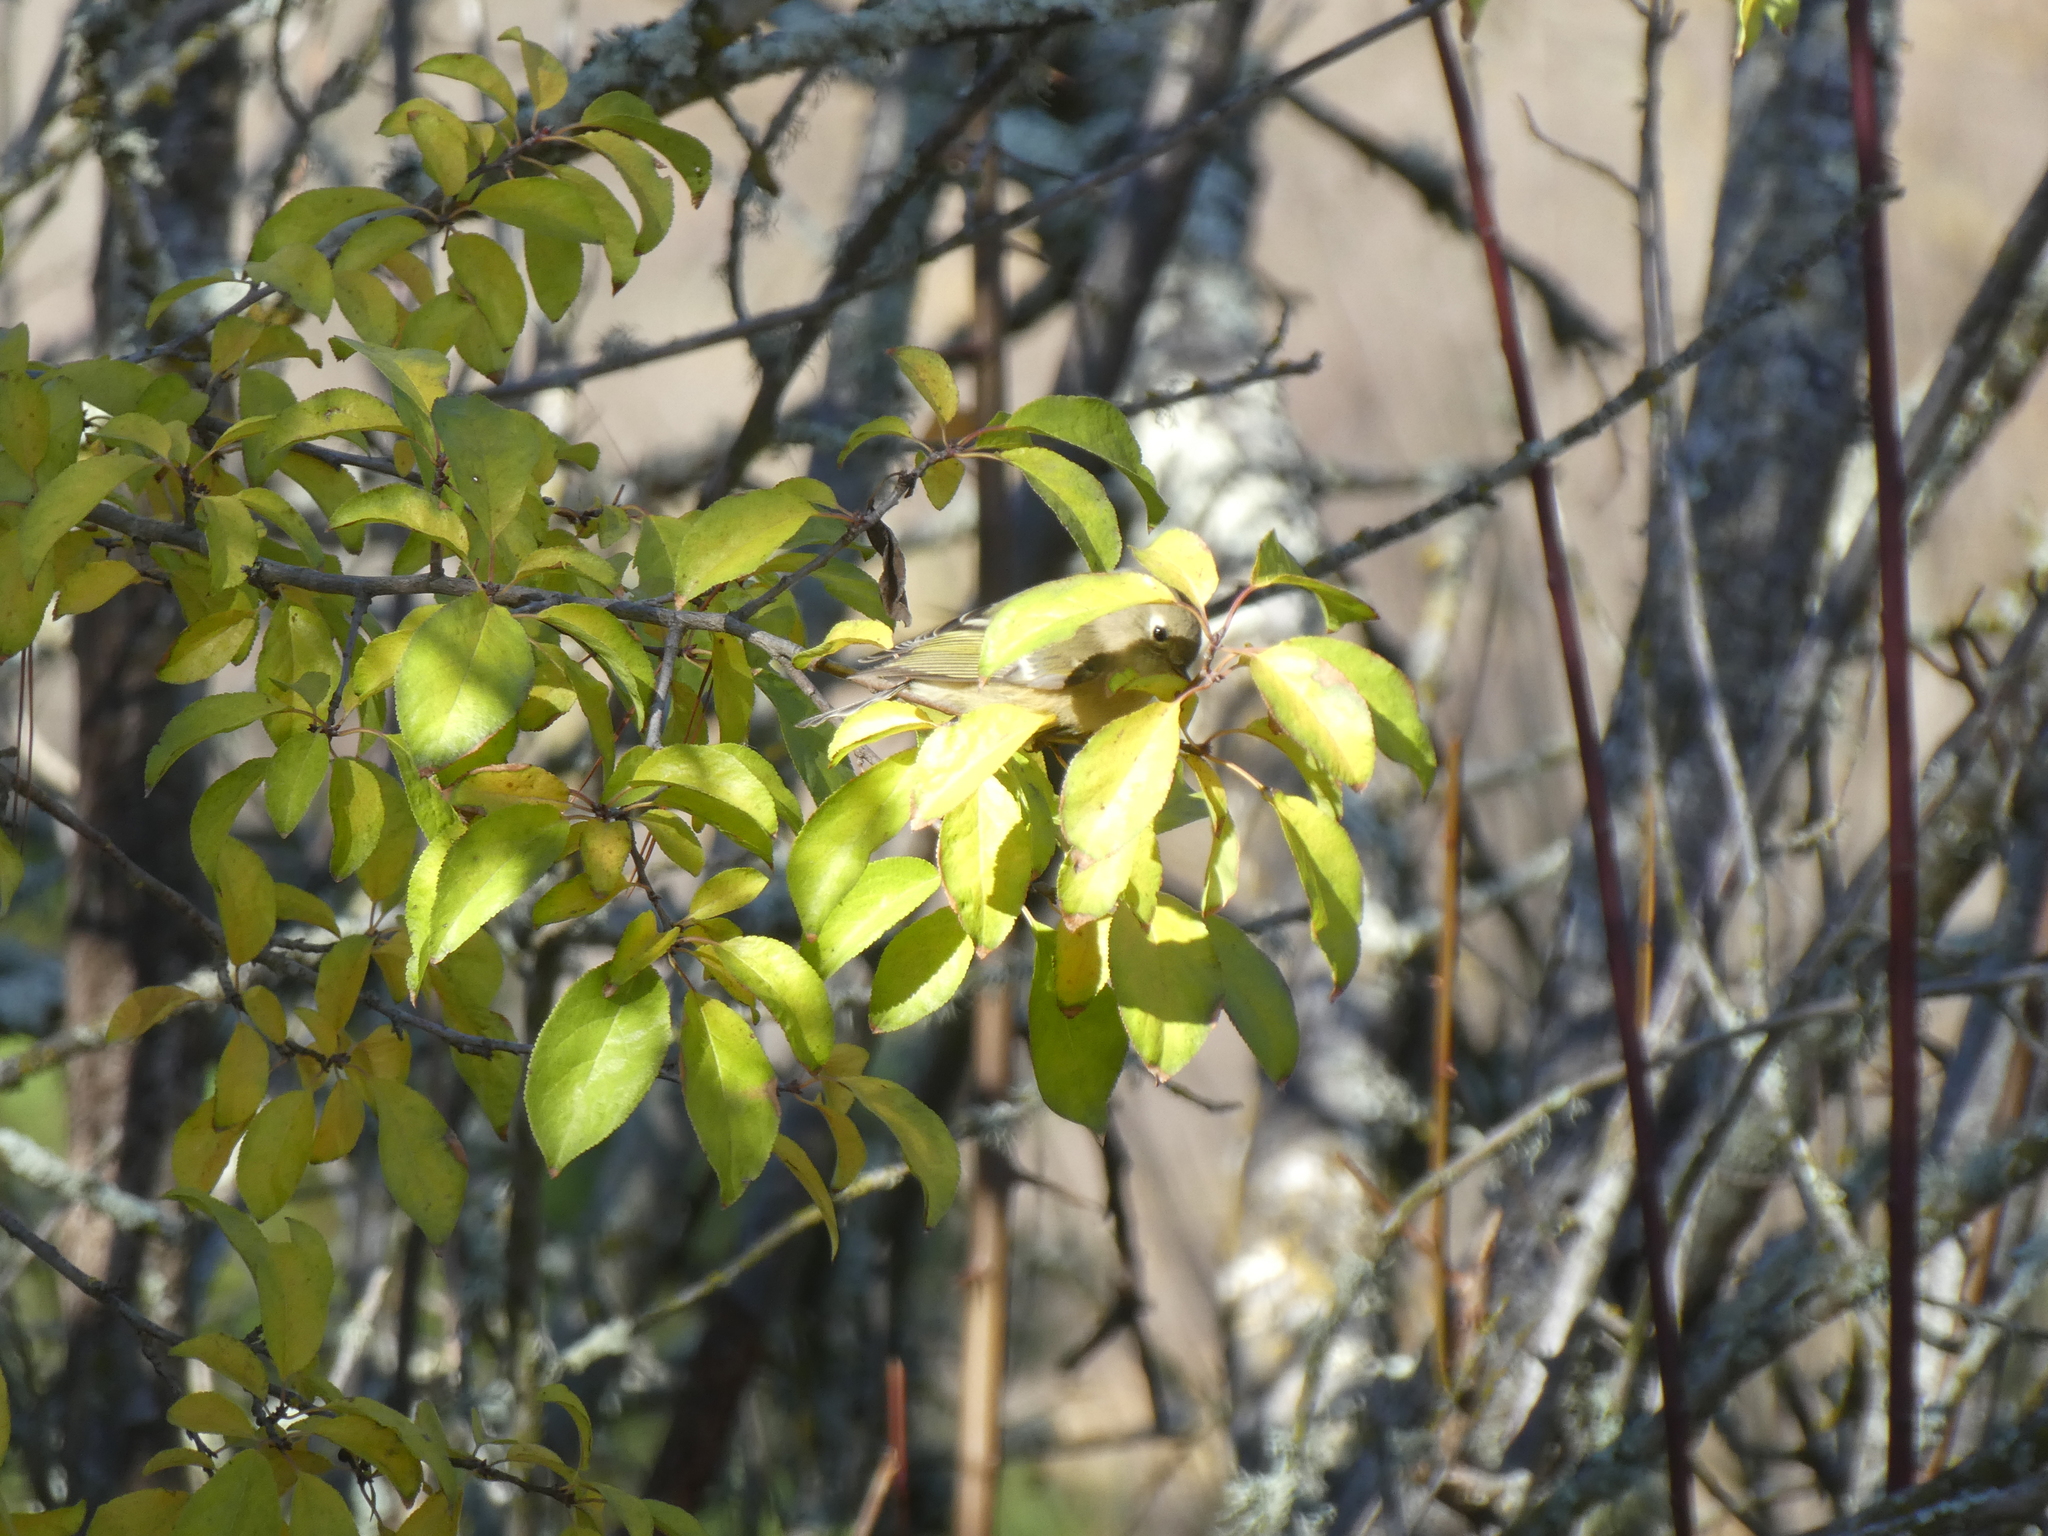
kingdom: Animalia
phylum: Chordata
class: Aves
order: Passeriformes
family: Regulidae
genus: Regulus
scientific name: Regulus calendula
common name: Ruby-crowned kinglet
